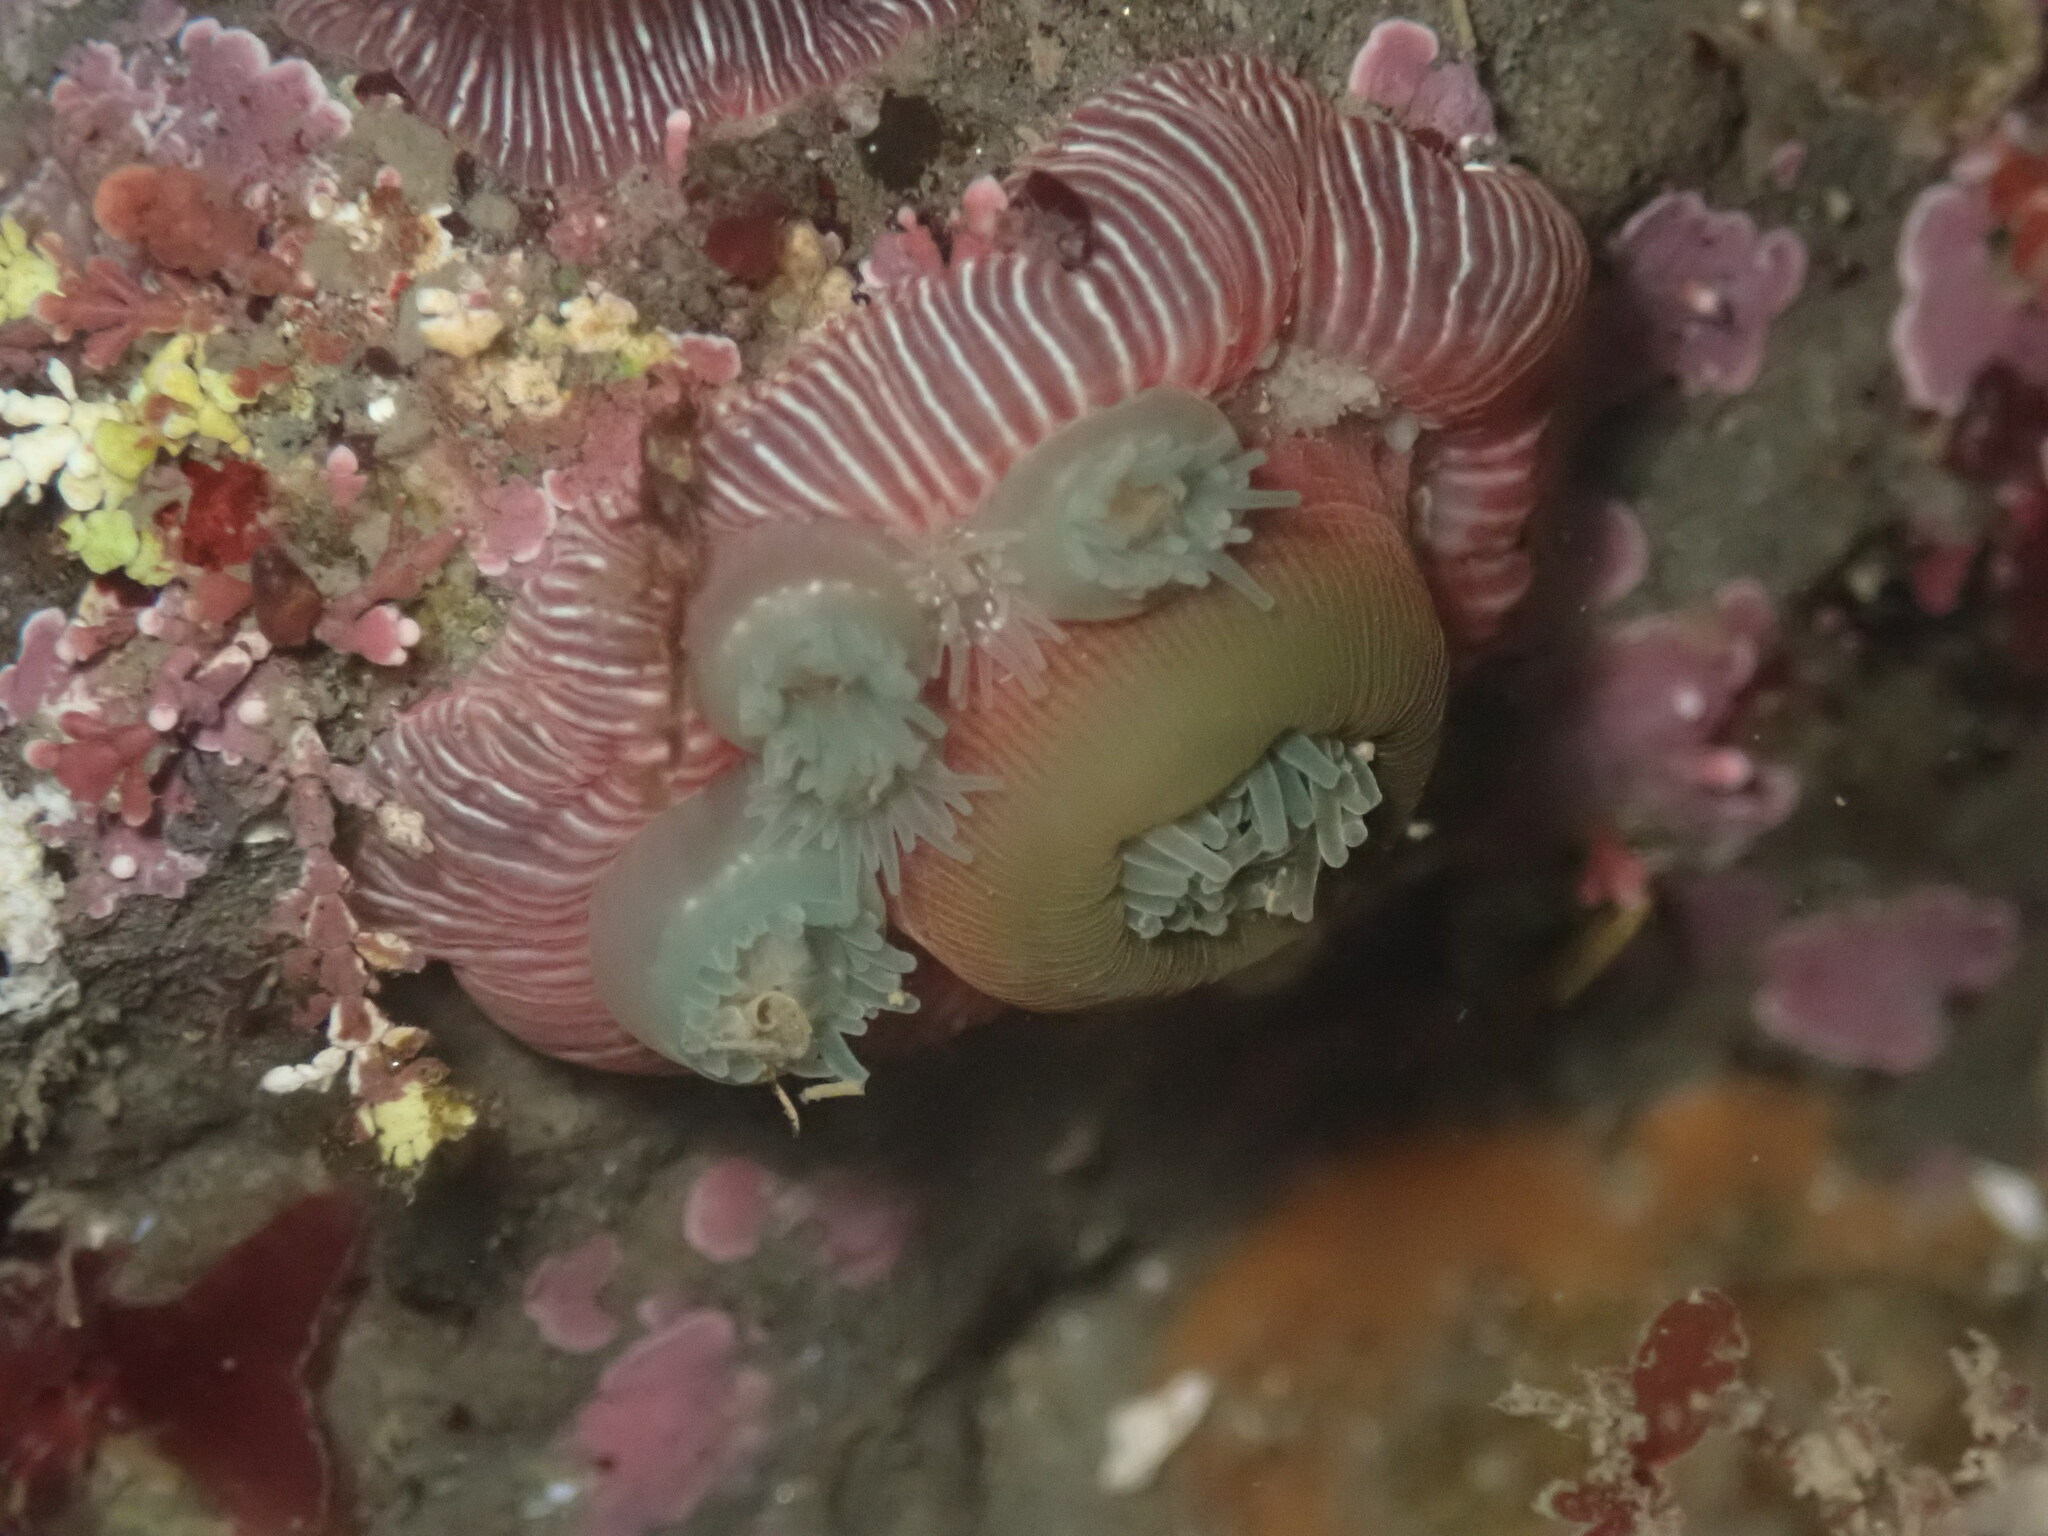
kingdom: Animalia
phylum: Cnidaria
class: Anthozoa
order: Actiniaria
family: Actiniidae
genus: Epiactis
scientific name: Epiactis prolifera
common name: Brooding anemone
